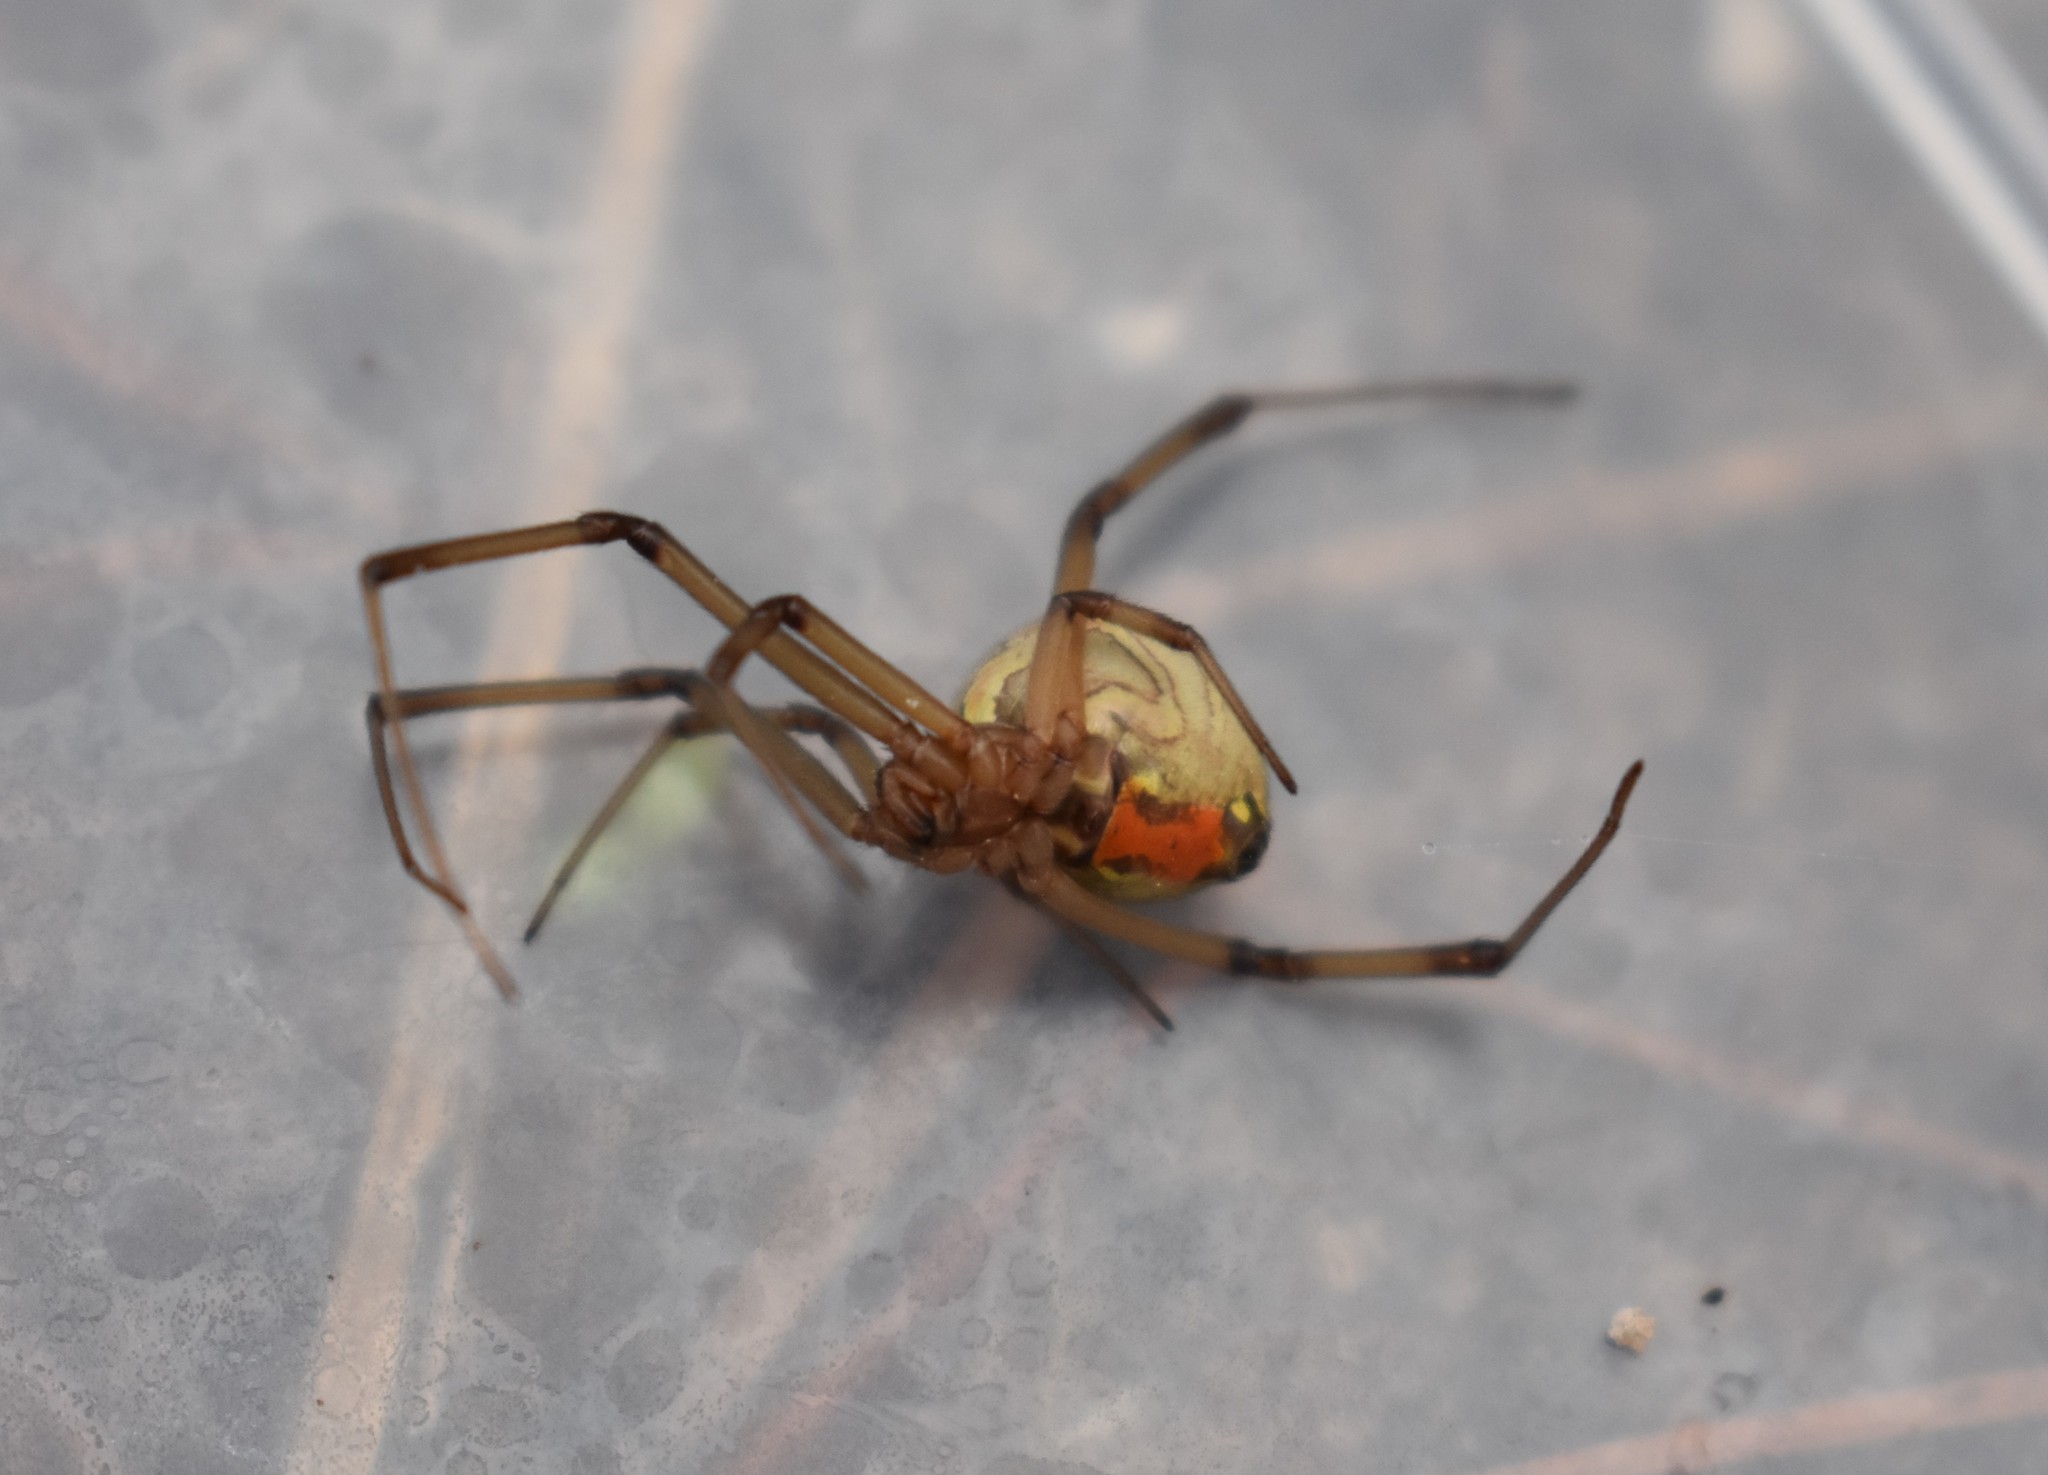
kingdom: Animalia
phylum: Arthropoda
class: Arachnida
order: Araneae
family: Theridiidae
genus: Latrodectus
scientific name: Latrodectus geometricus
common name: Brown widow spider
